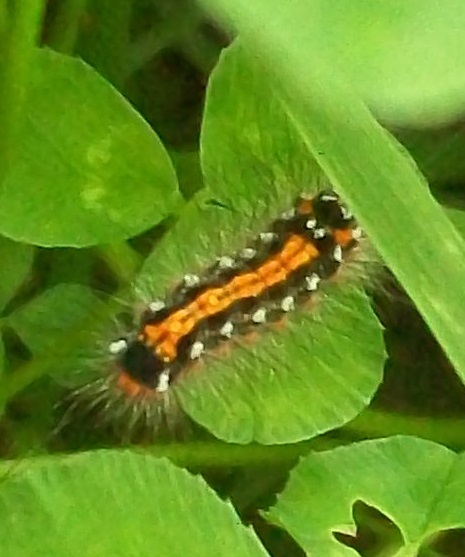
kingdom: Animalia
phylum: Arthropoda
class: Insecta
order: Lepidoptera
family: Erebidae
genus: Sphrageidus
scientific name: Sphrageidus similis
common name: Yellow-tail
